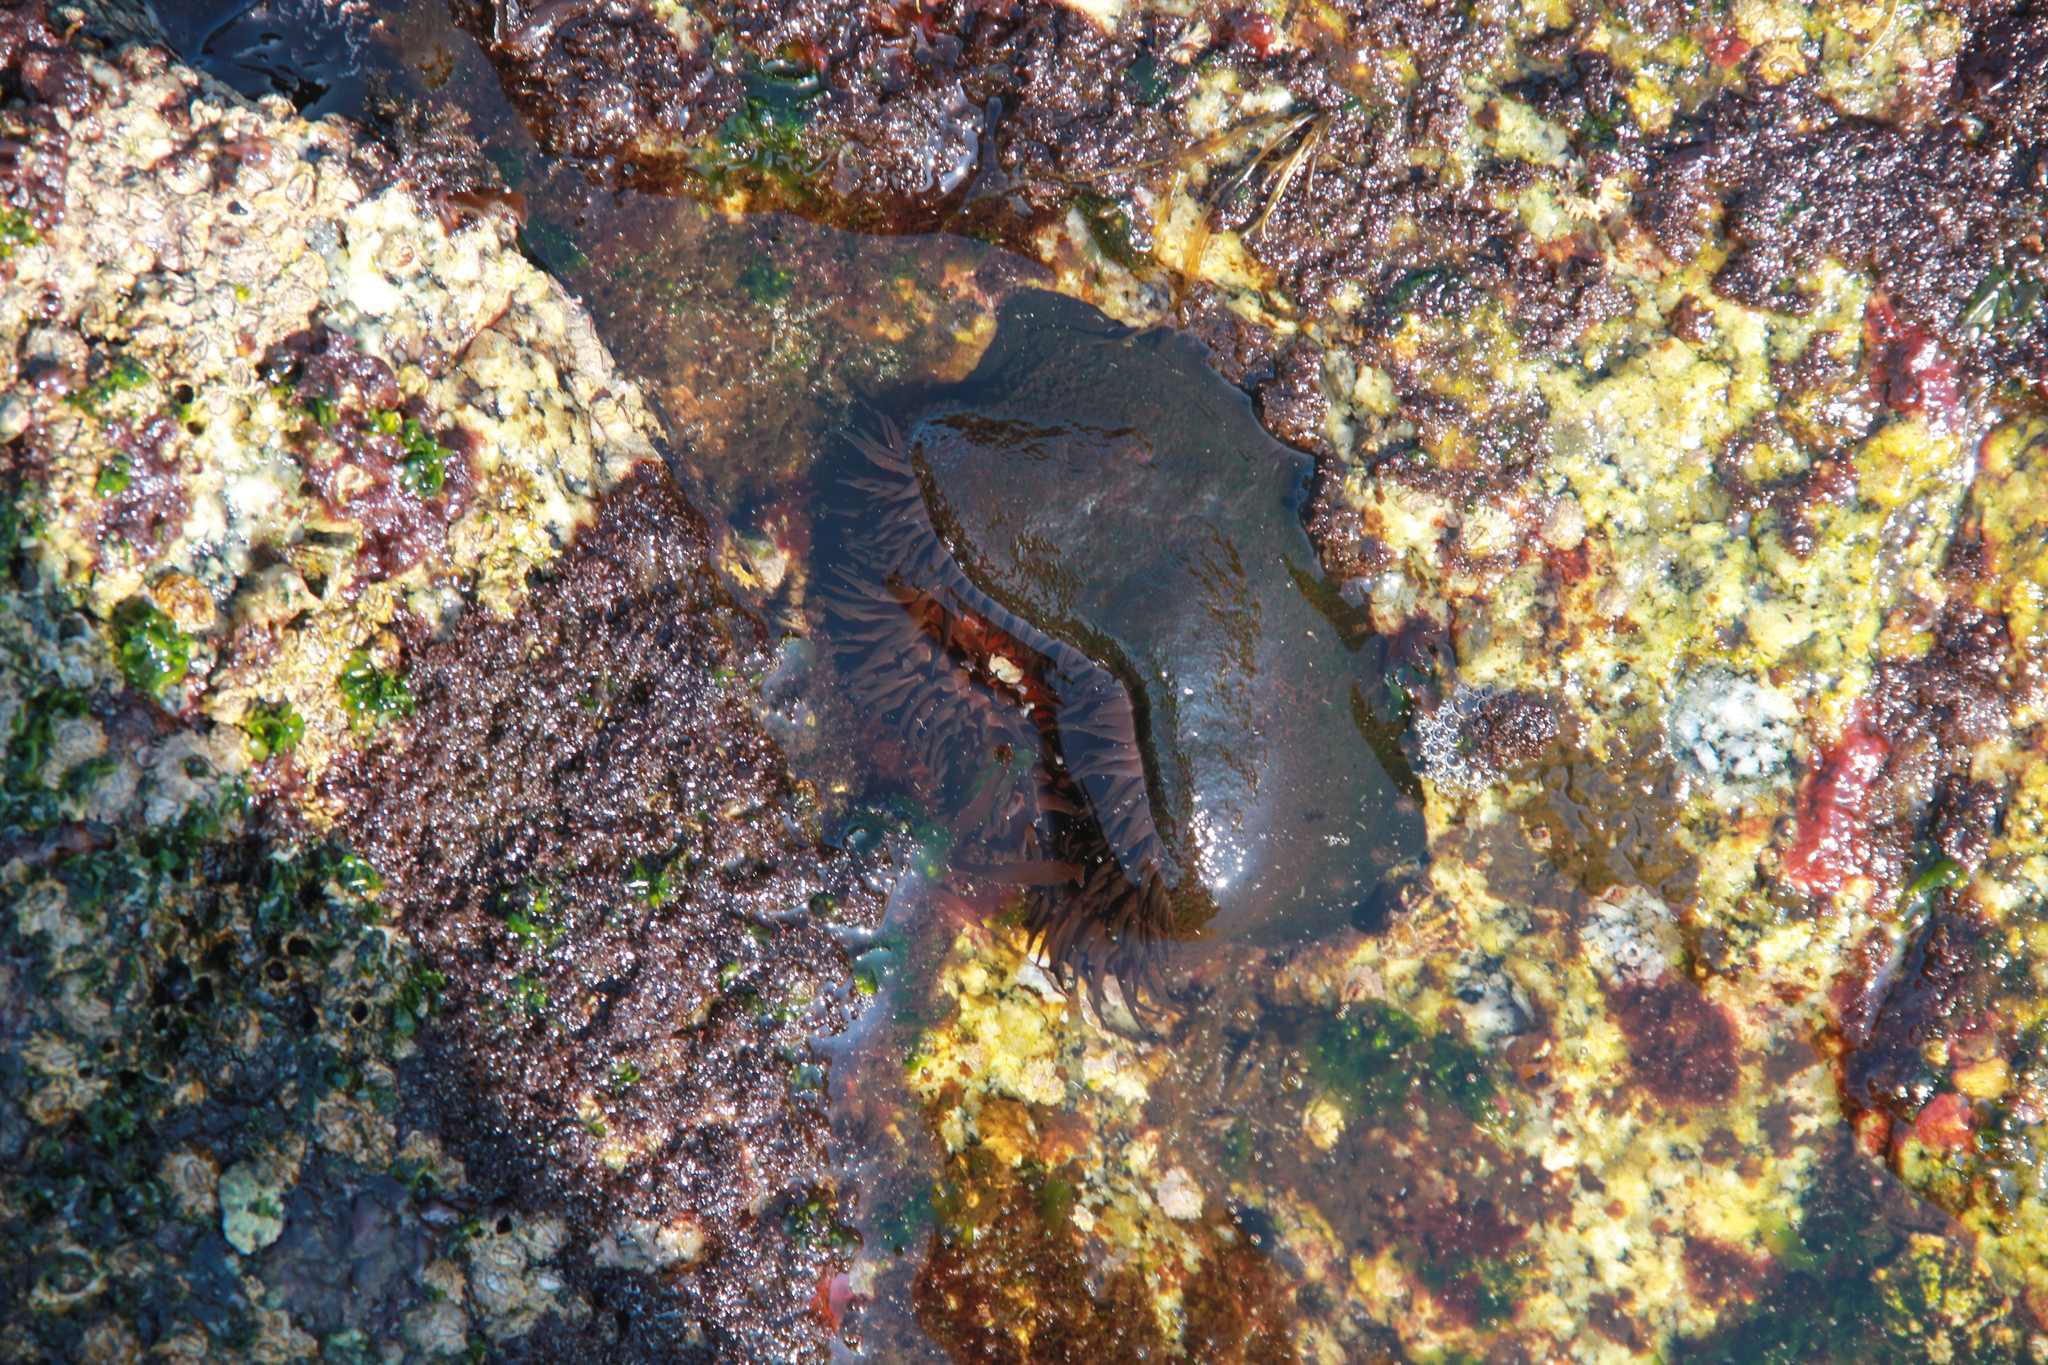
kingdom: Animalia
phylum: Cnidaria
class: Anthozoa
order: Actiniaria
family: Actiniidae
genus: Phymactis
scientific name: Phymactis papillosa
